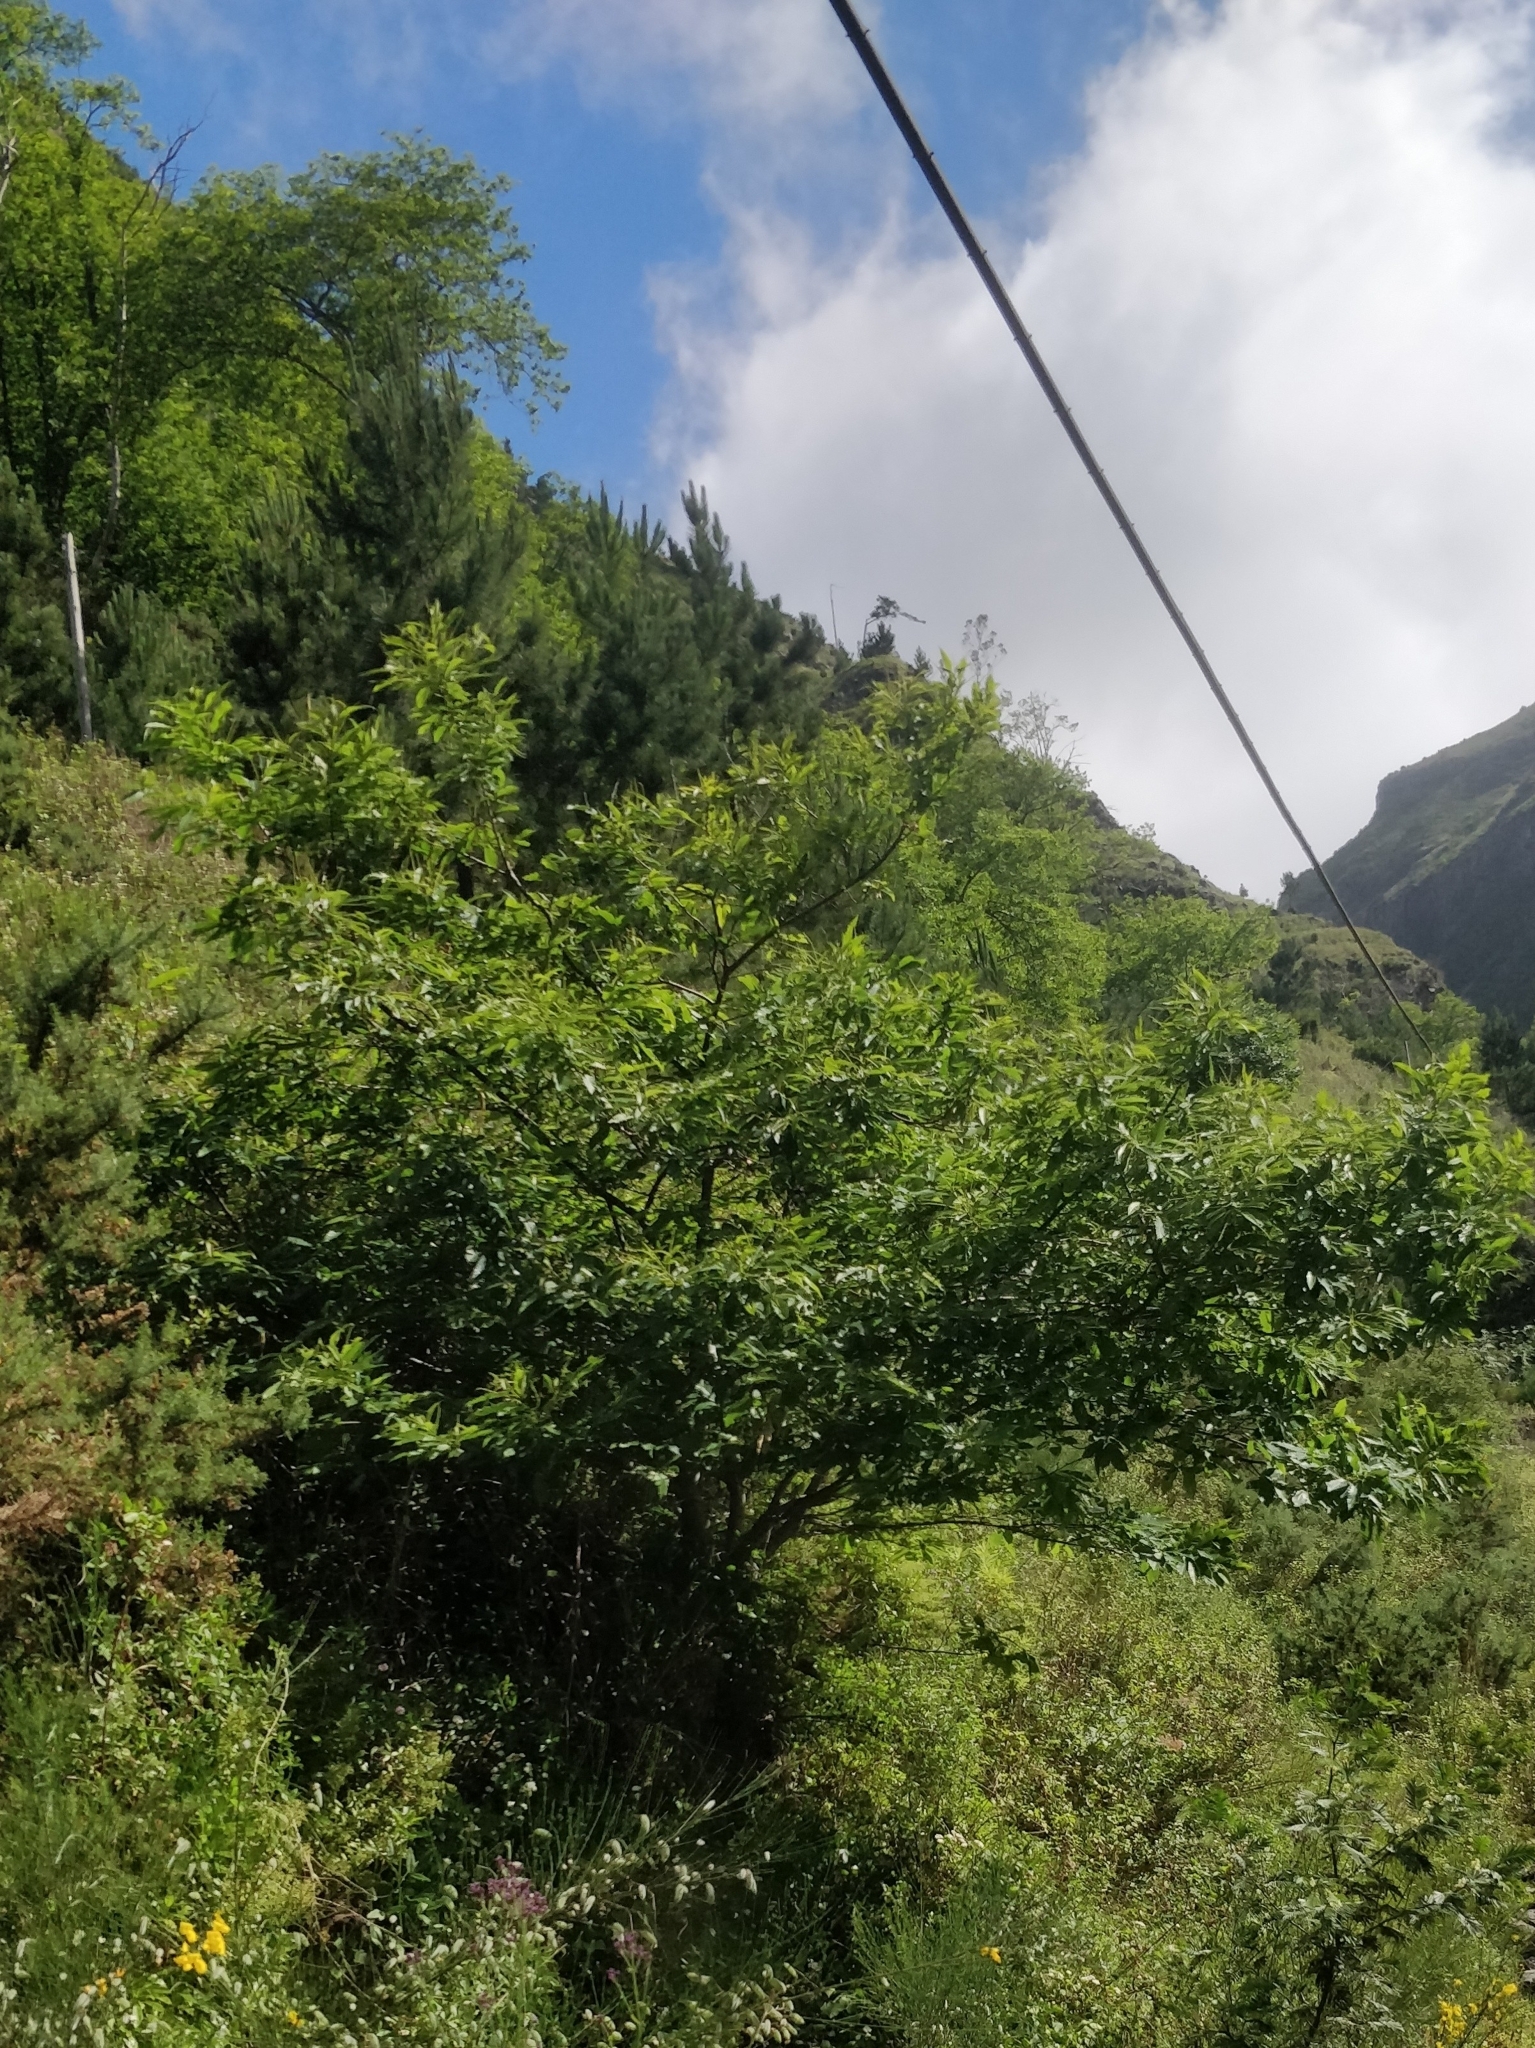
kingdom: Plantae
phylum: Tracheophyta
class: Magnoliopsida
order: Fagales
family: Fagaceae
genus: Castanea
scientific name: Castanea sativa
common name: Sweet chestnut
